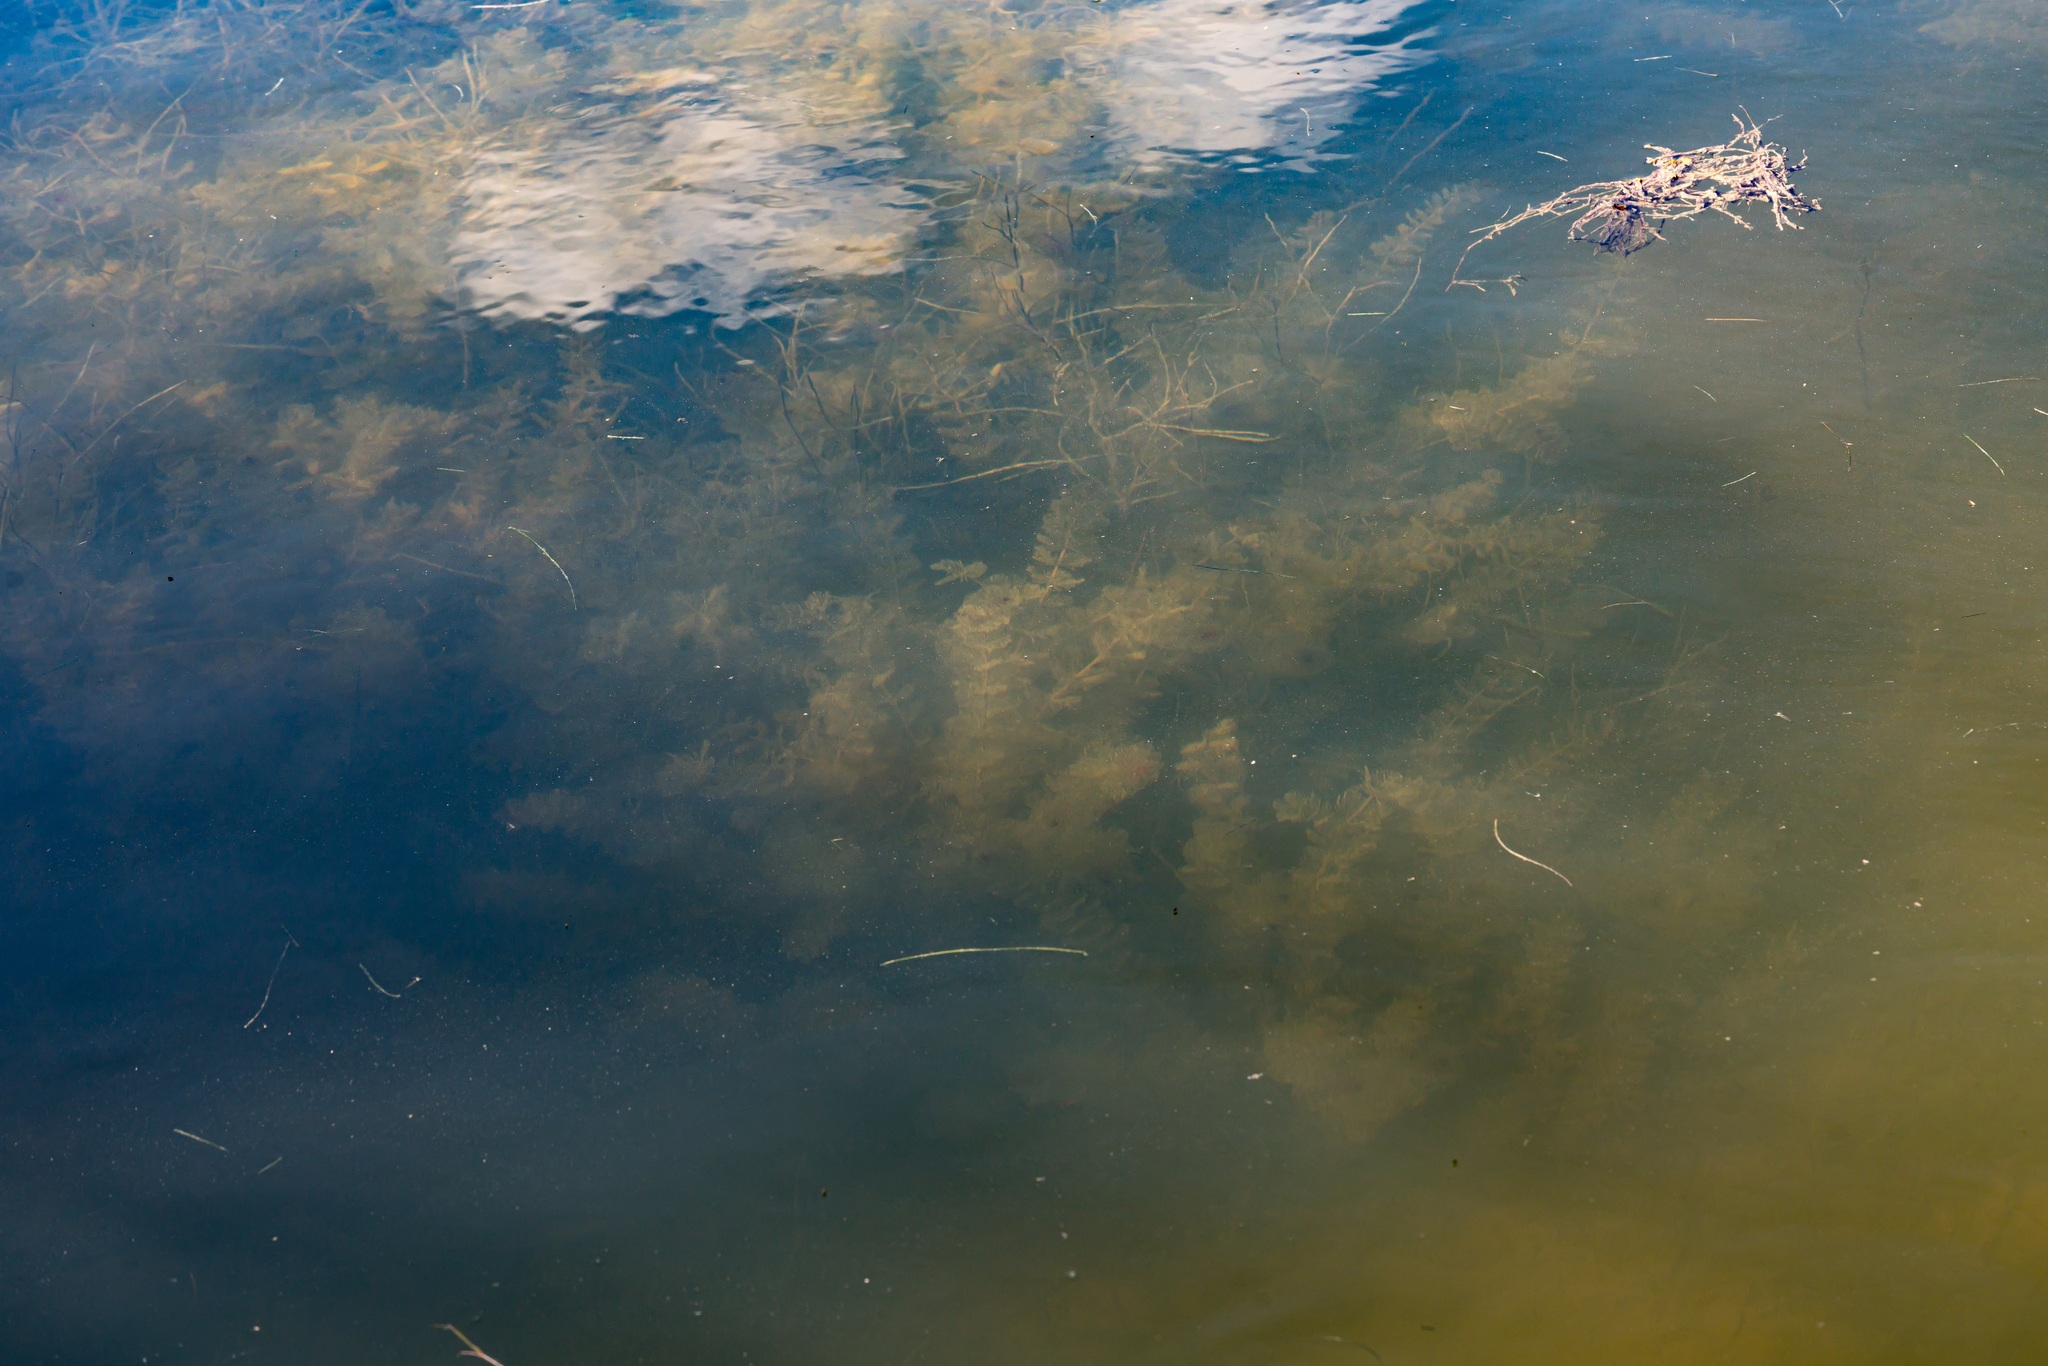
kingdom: Plantae
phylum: Tracheophyta
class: Magnoliopsida
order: Saxifragales
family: Haloragaceae
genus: Myriophyllum
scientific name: Myriophyllum spicatum
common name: Spiked water-milfoil
